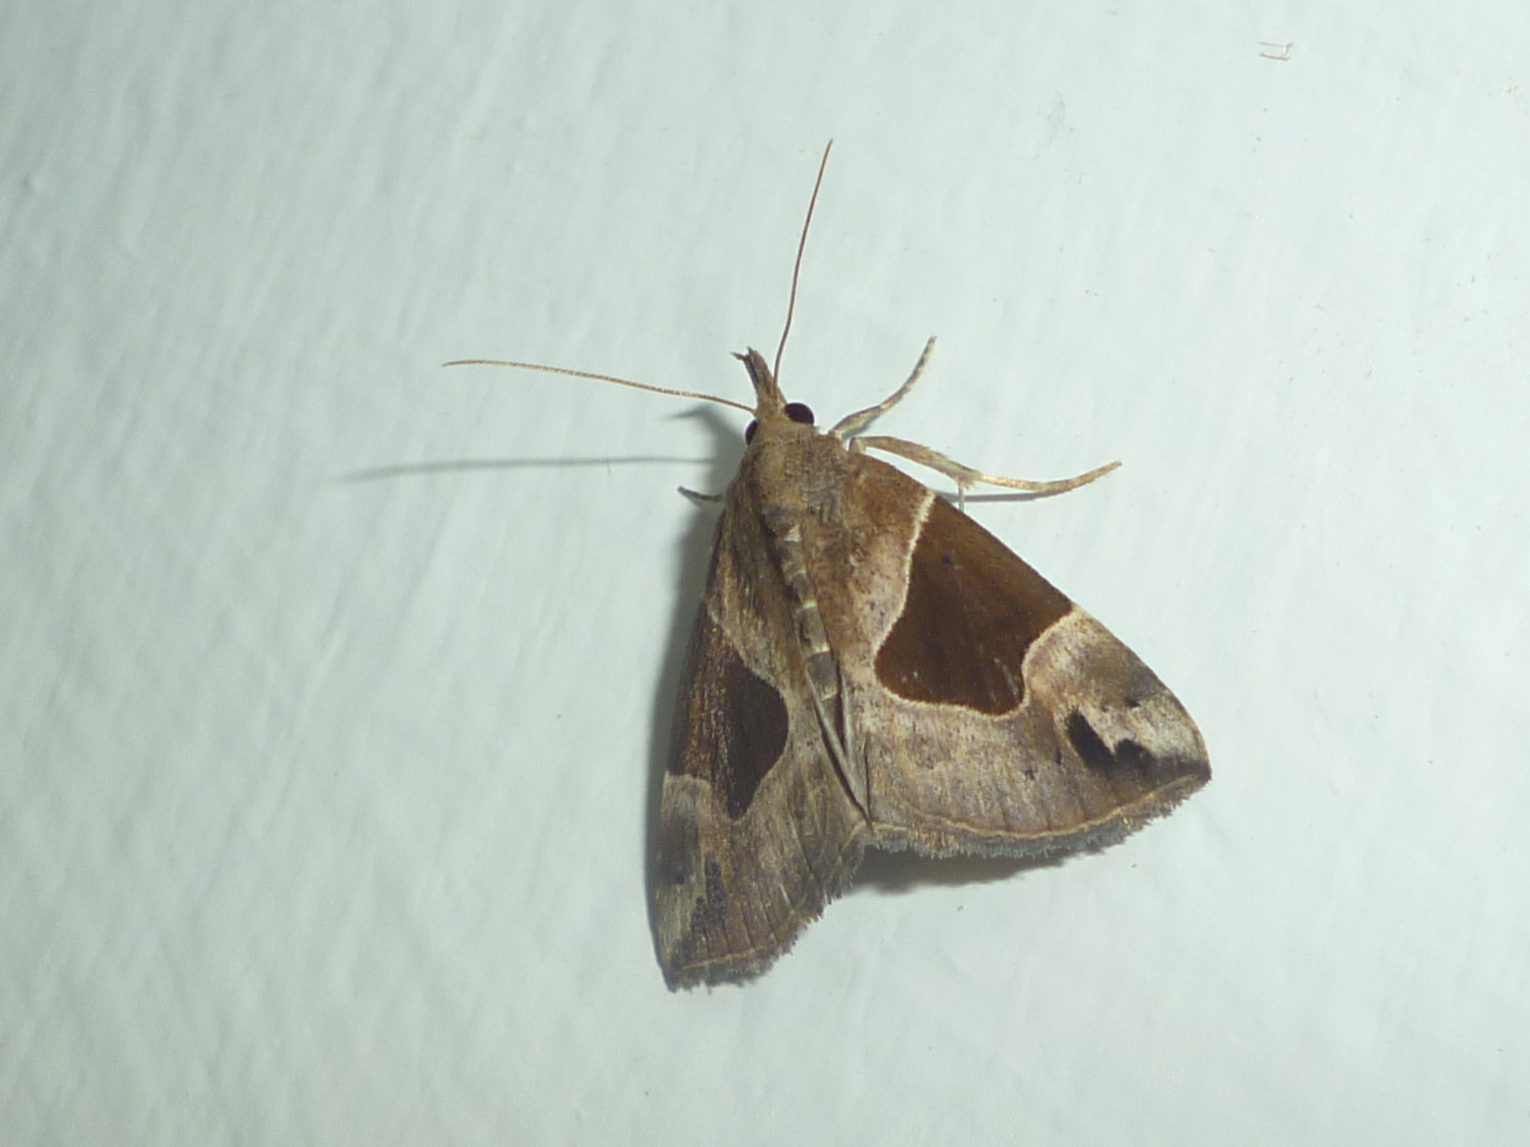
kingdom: Animalia
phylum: Arthropoda
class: Insecta
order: Lepidoptera
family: Erebidae
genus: Hypena
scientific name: Hypena manalis
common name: Flowing-line bomolocha moth
